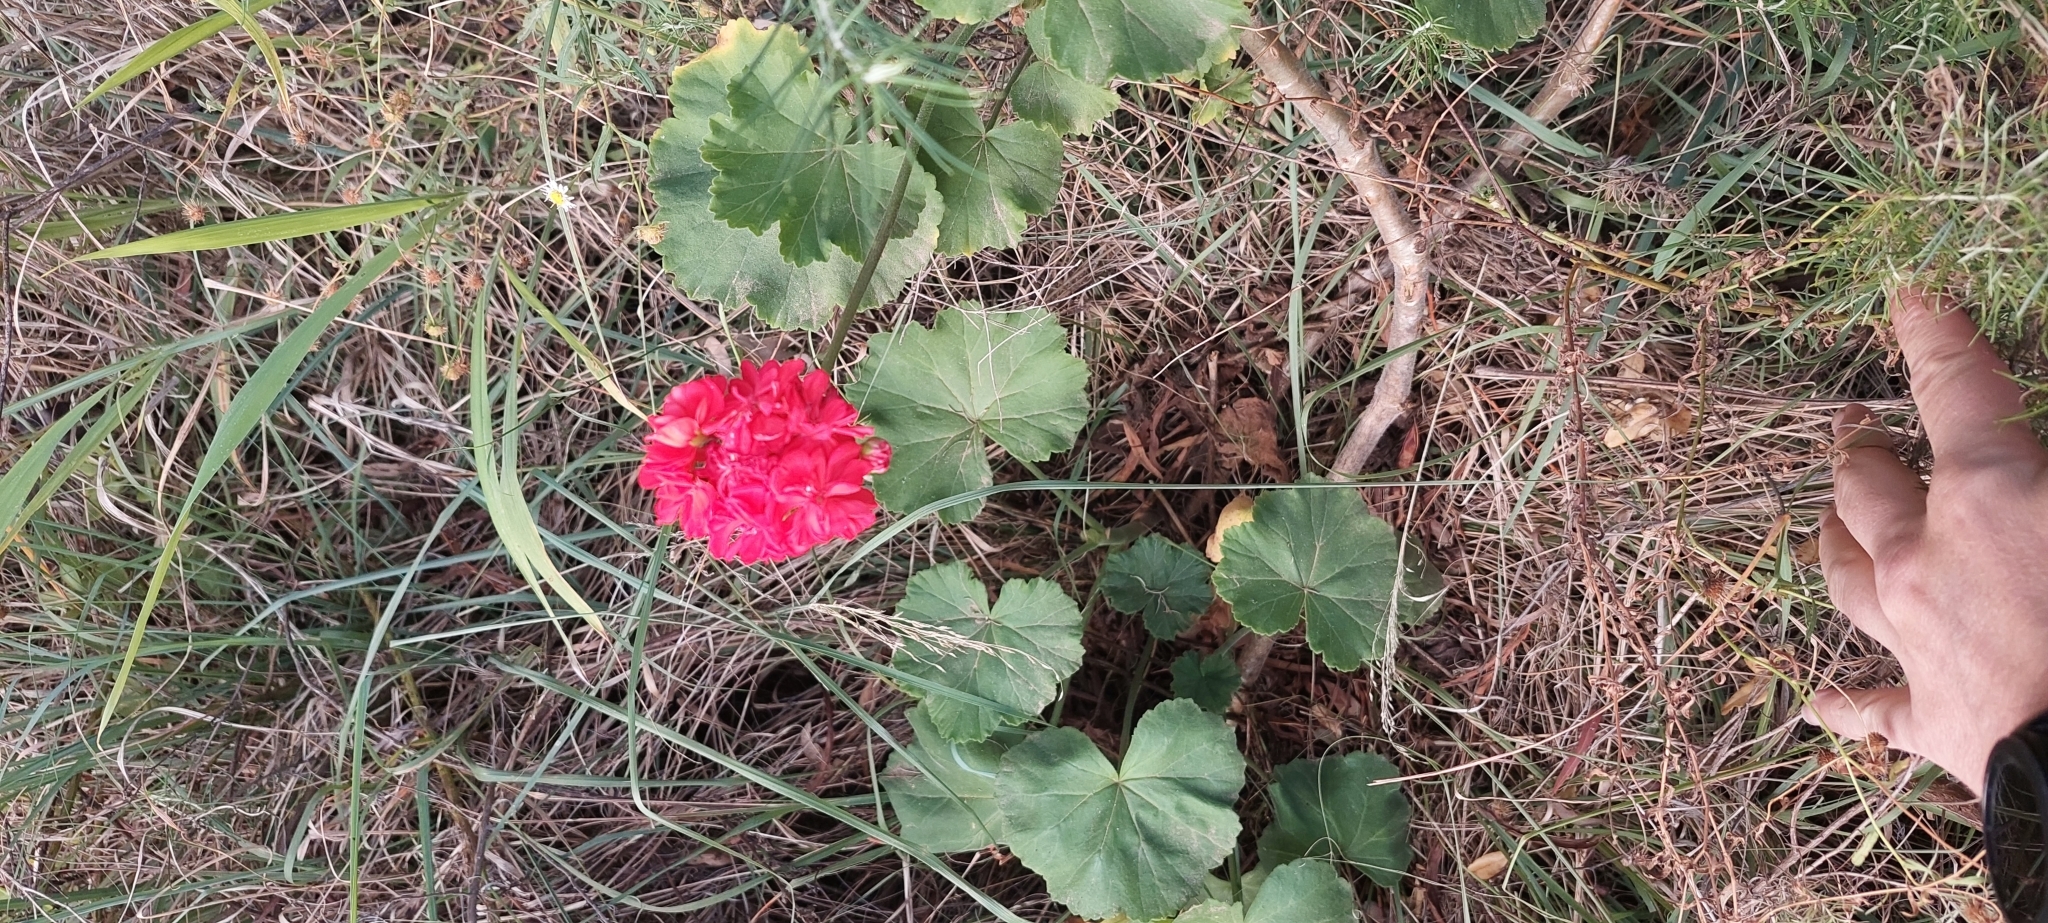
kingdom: Plantae
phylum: Tracheophyta
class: Magnoliopsida
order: Geraniales
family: Geraniaceae
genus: Pelargonium
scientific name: Pelargonium hybridum
